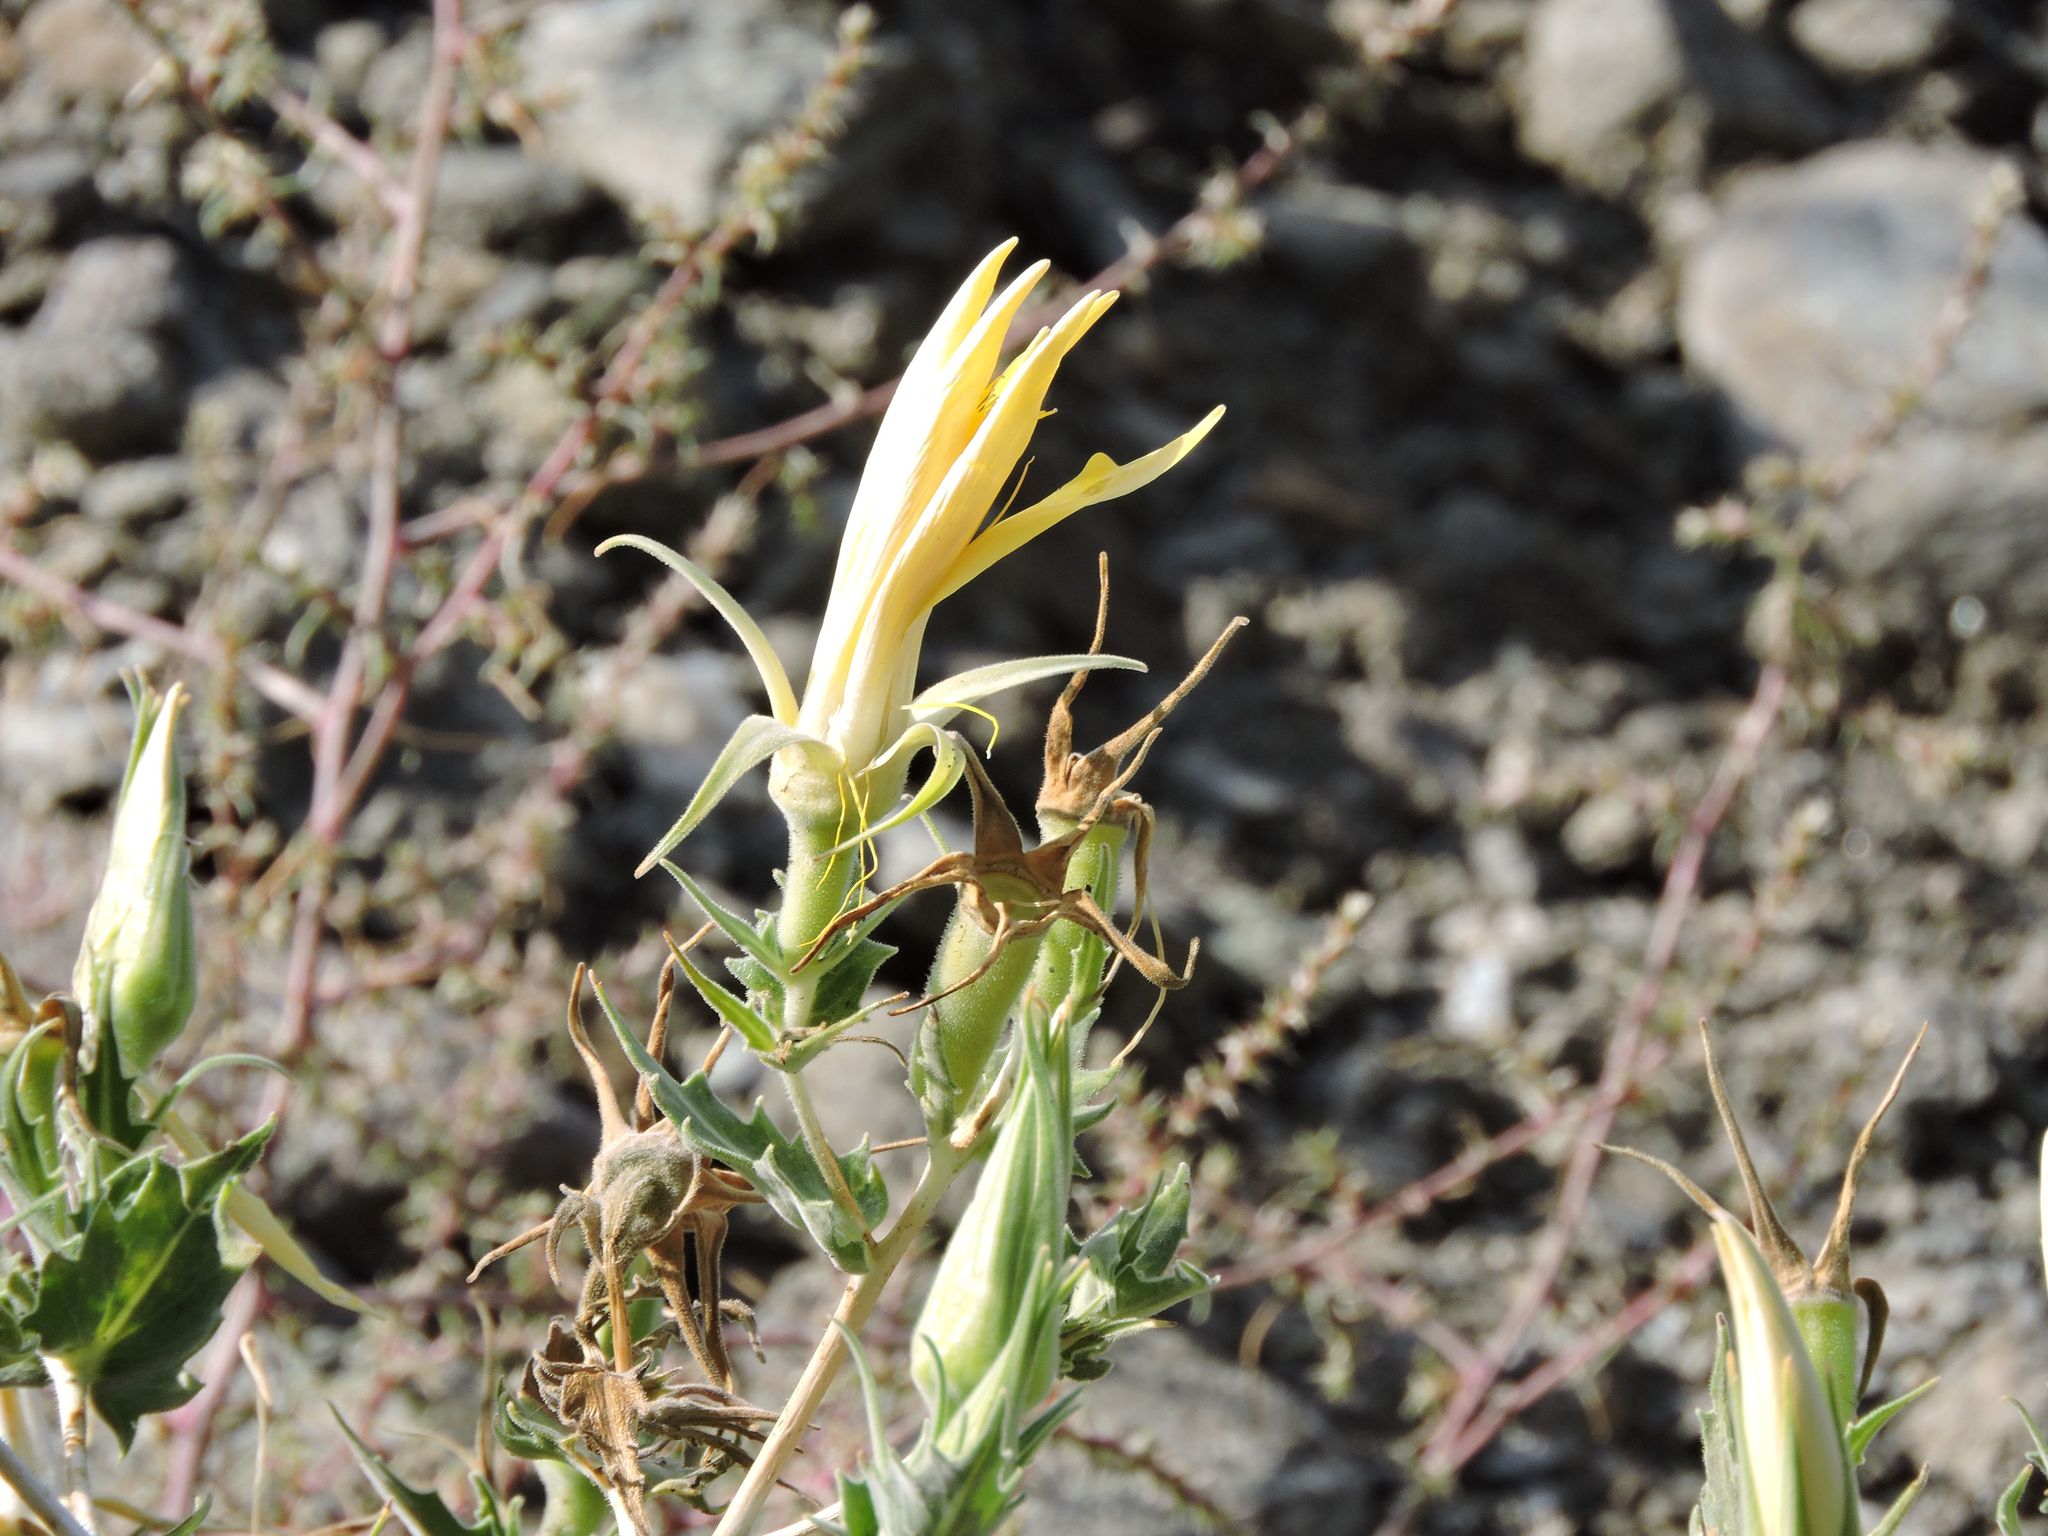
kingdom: Plantae
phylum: Tracheophyta
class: Magnoliopsida
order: Cornales
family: Loasaceae
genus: Mentzelia
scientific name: Mentzelia laevicaulis
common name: Smooth-stem blazingstar
